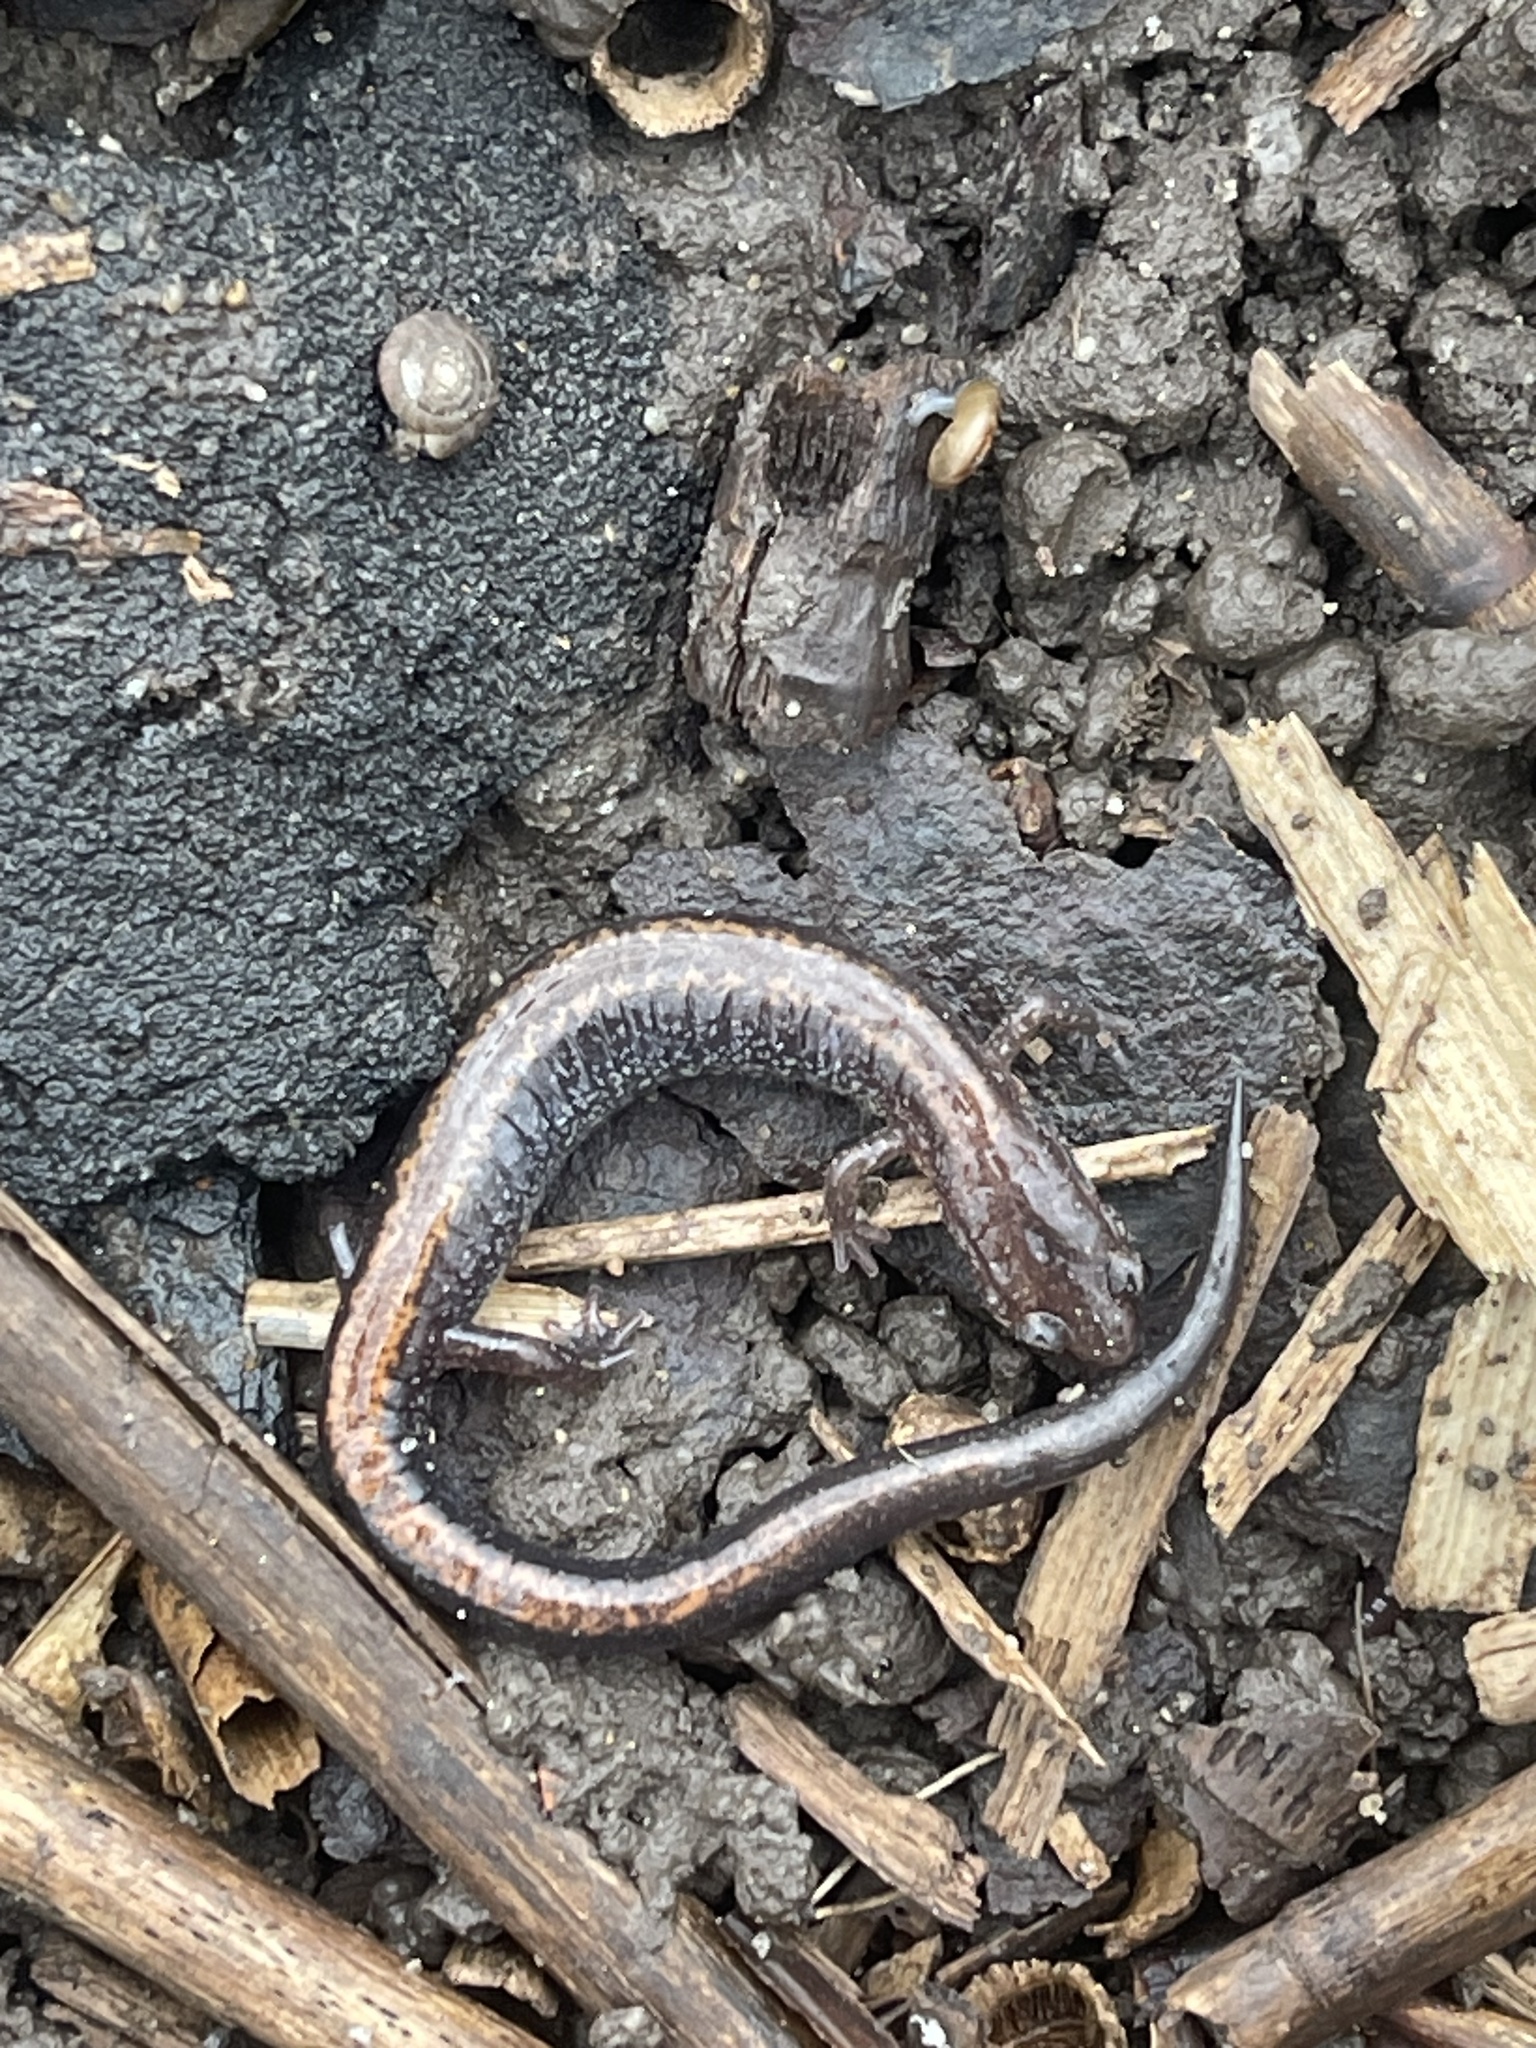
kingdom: Animalia
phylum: Chordata
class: Amphibia
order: Caudata
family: Plethodontidae
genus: Plethodon
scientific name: Plethodon cinereus
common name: Redback salamander
